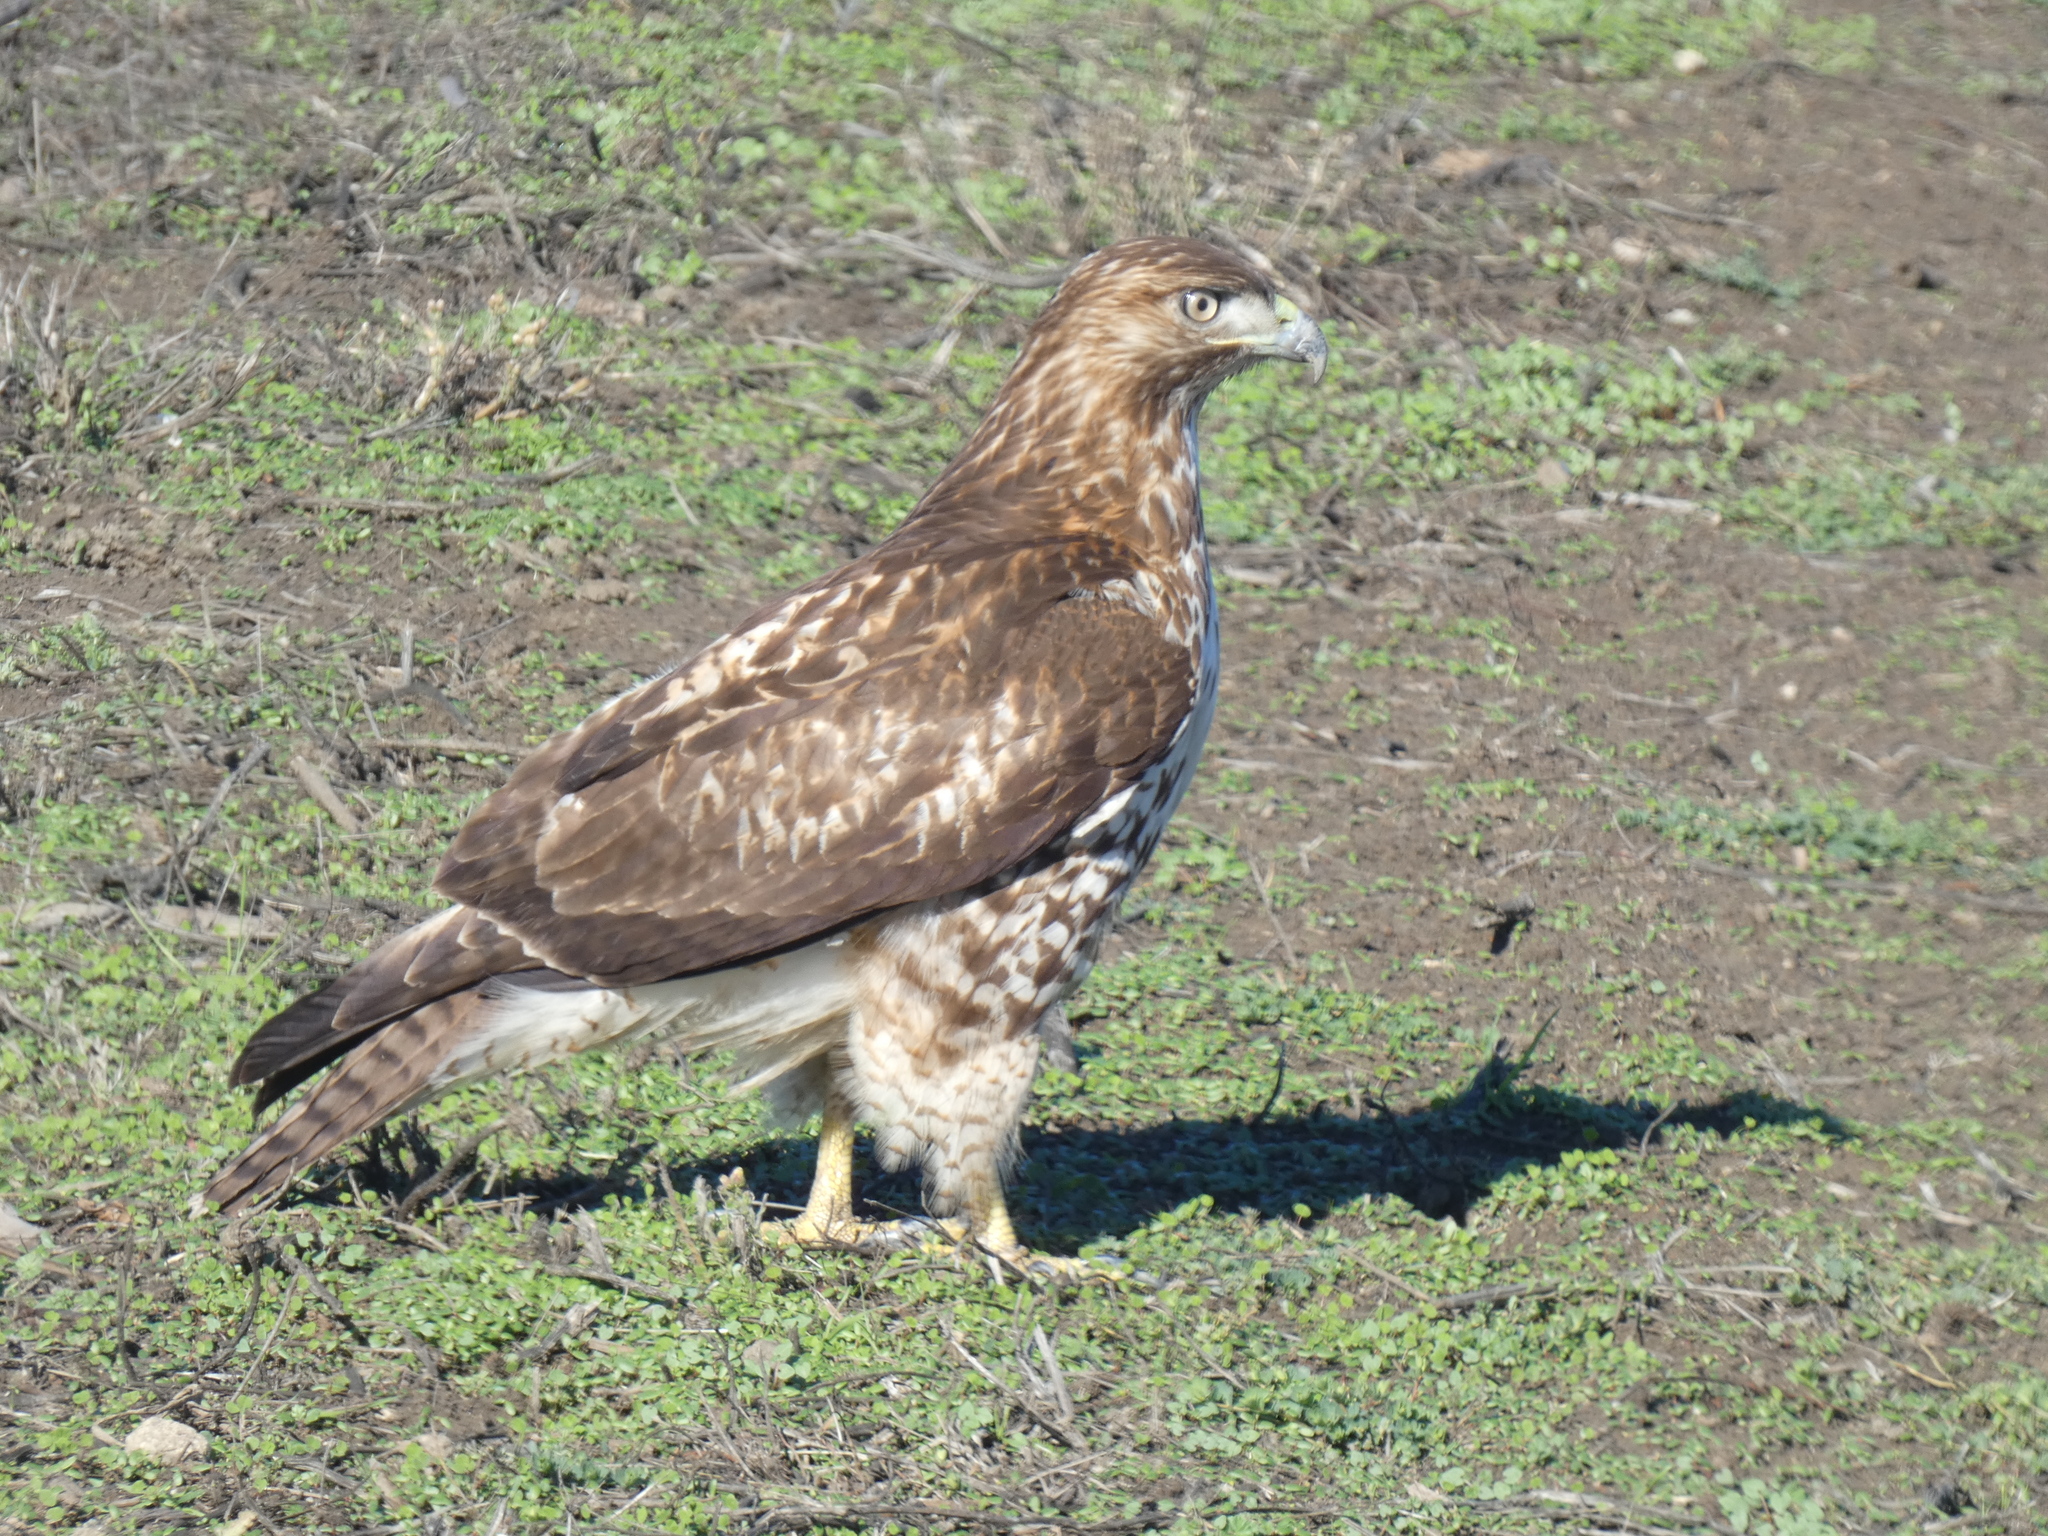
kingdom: Animalia
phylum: Chordata
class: Aves
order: Accipitriformes
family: Accipitridae
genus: Buteo
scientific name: Buteo jamaicensis
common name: Red-tailed hawk
